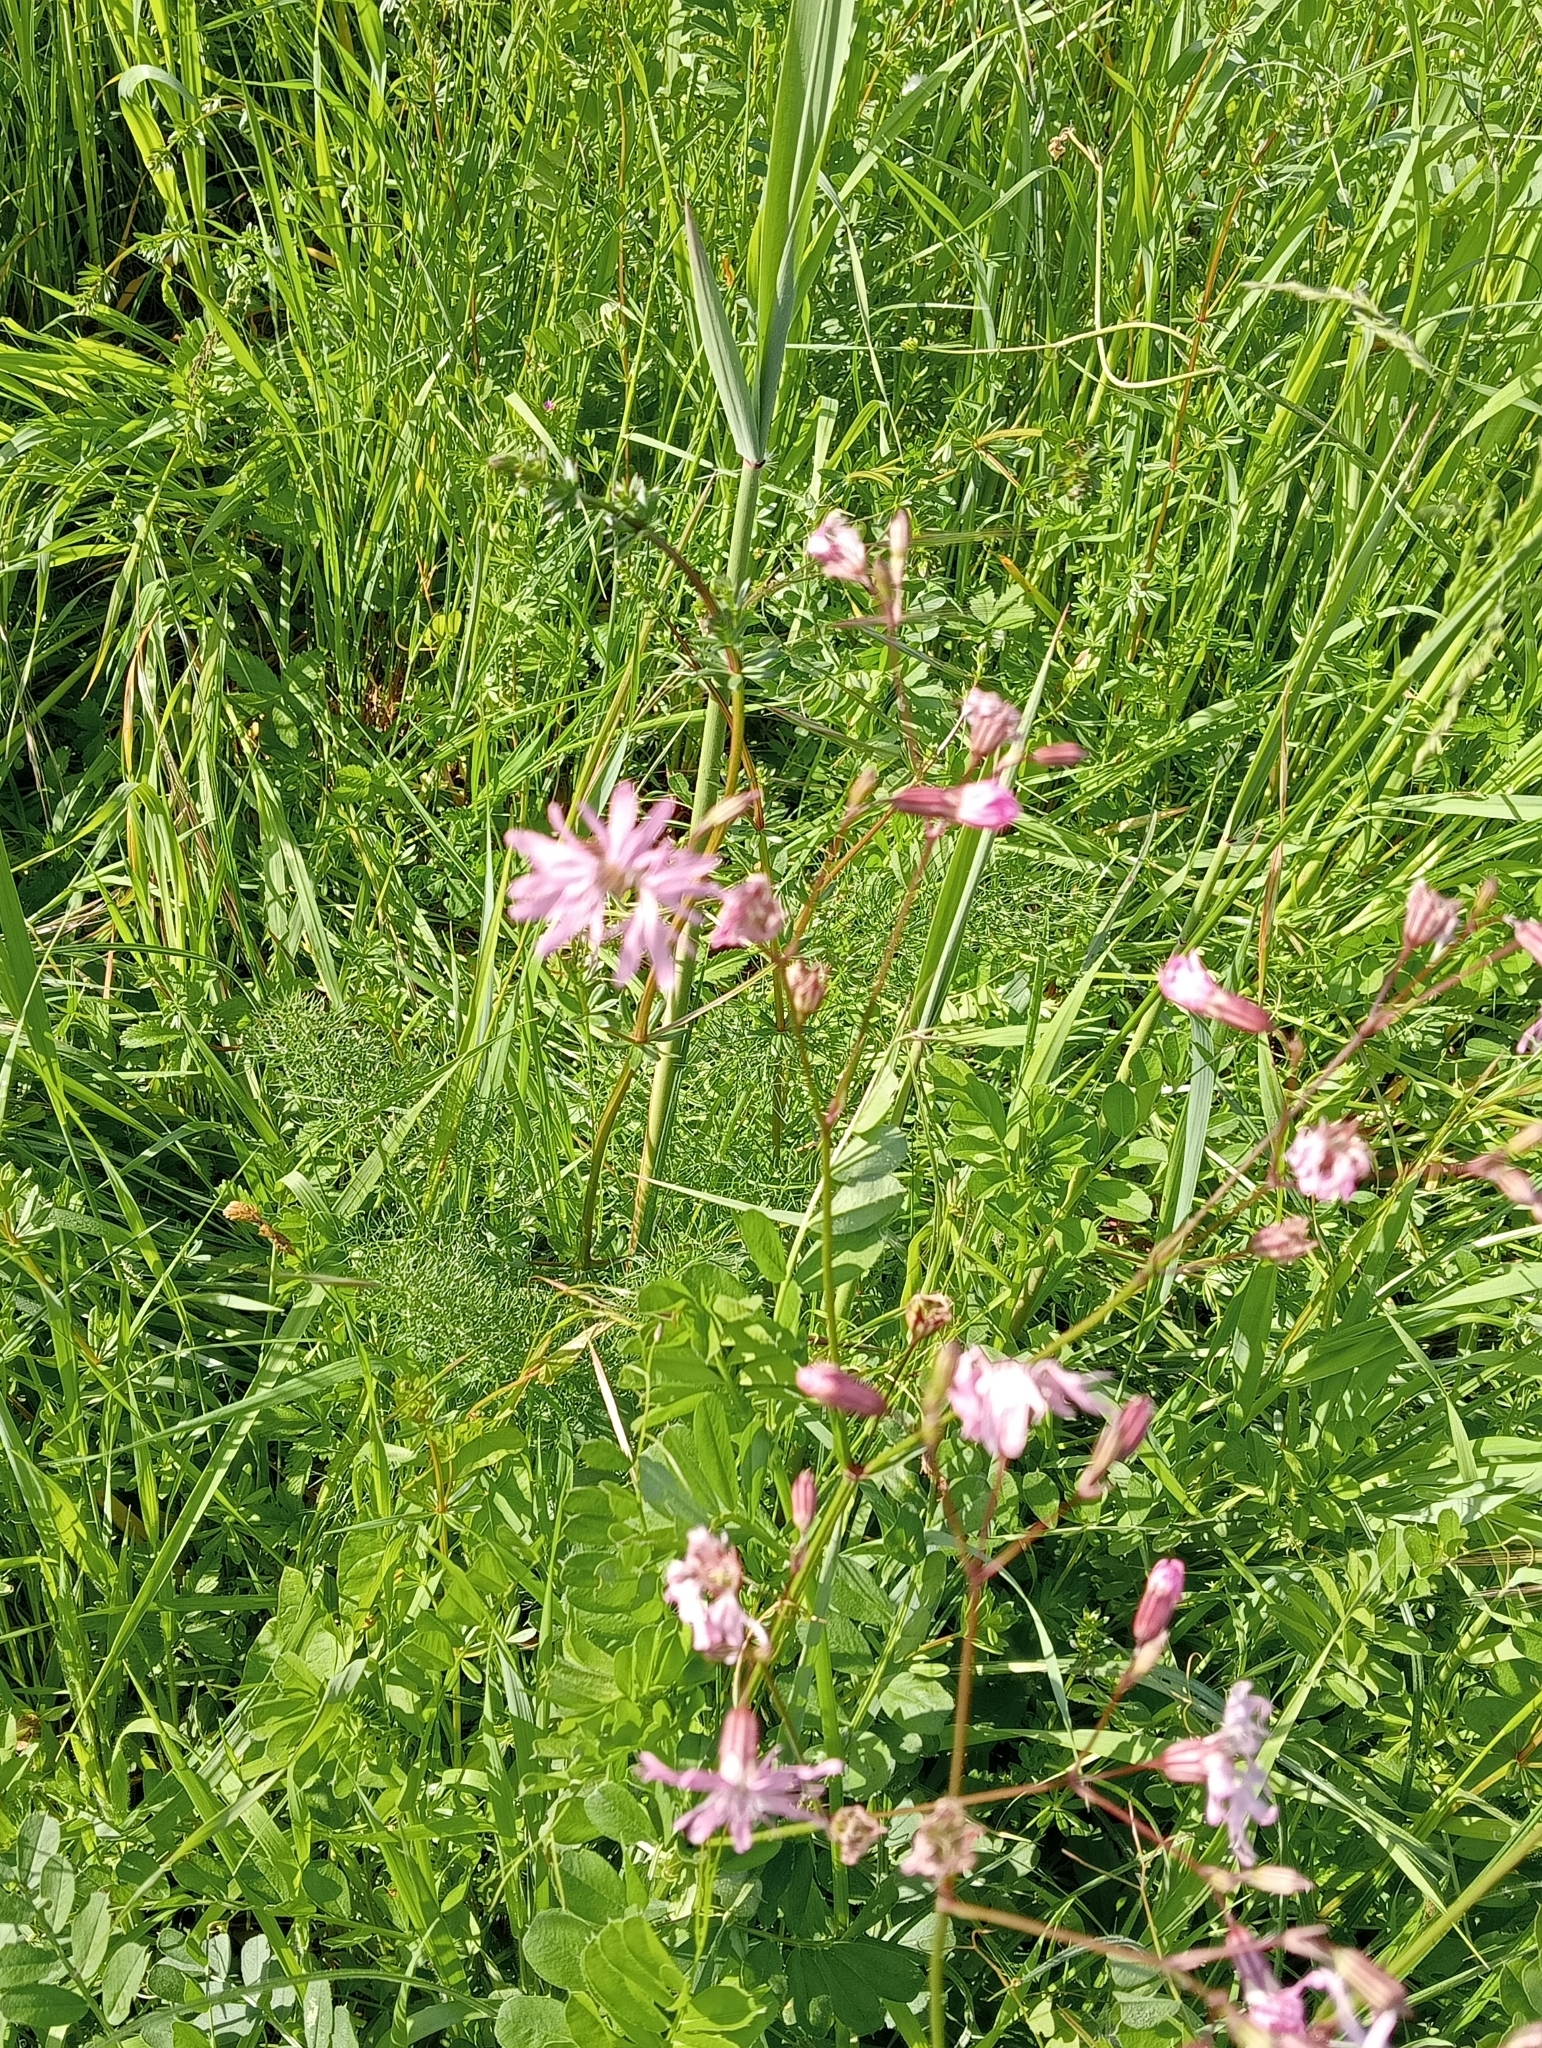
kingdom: Plantae
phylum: Tracheophyta
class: Magnoliopsida
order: Caryophyllales
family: Caryophyllaceae
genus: Silene
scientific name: Silene flos-cuculi
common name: Ragged-robin
